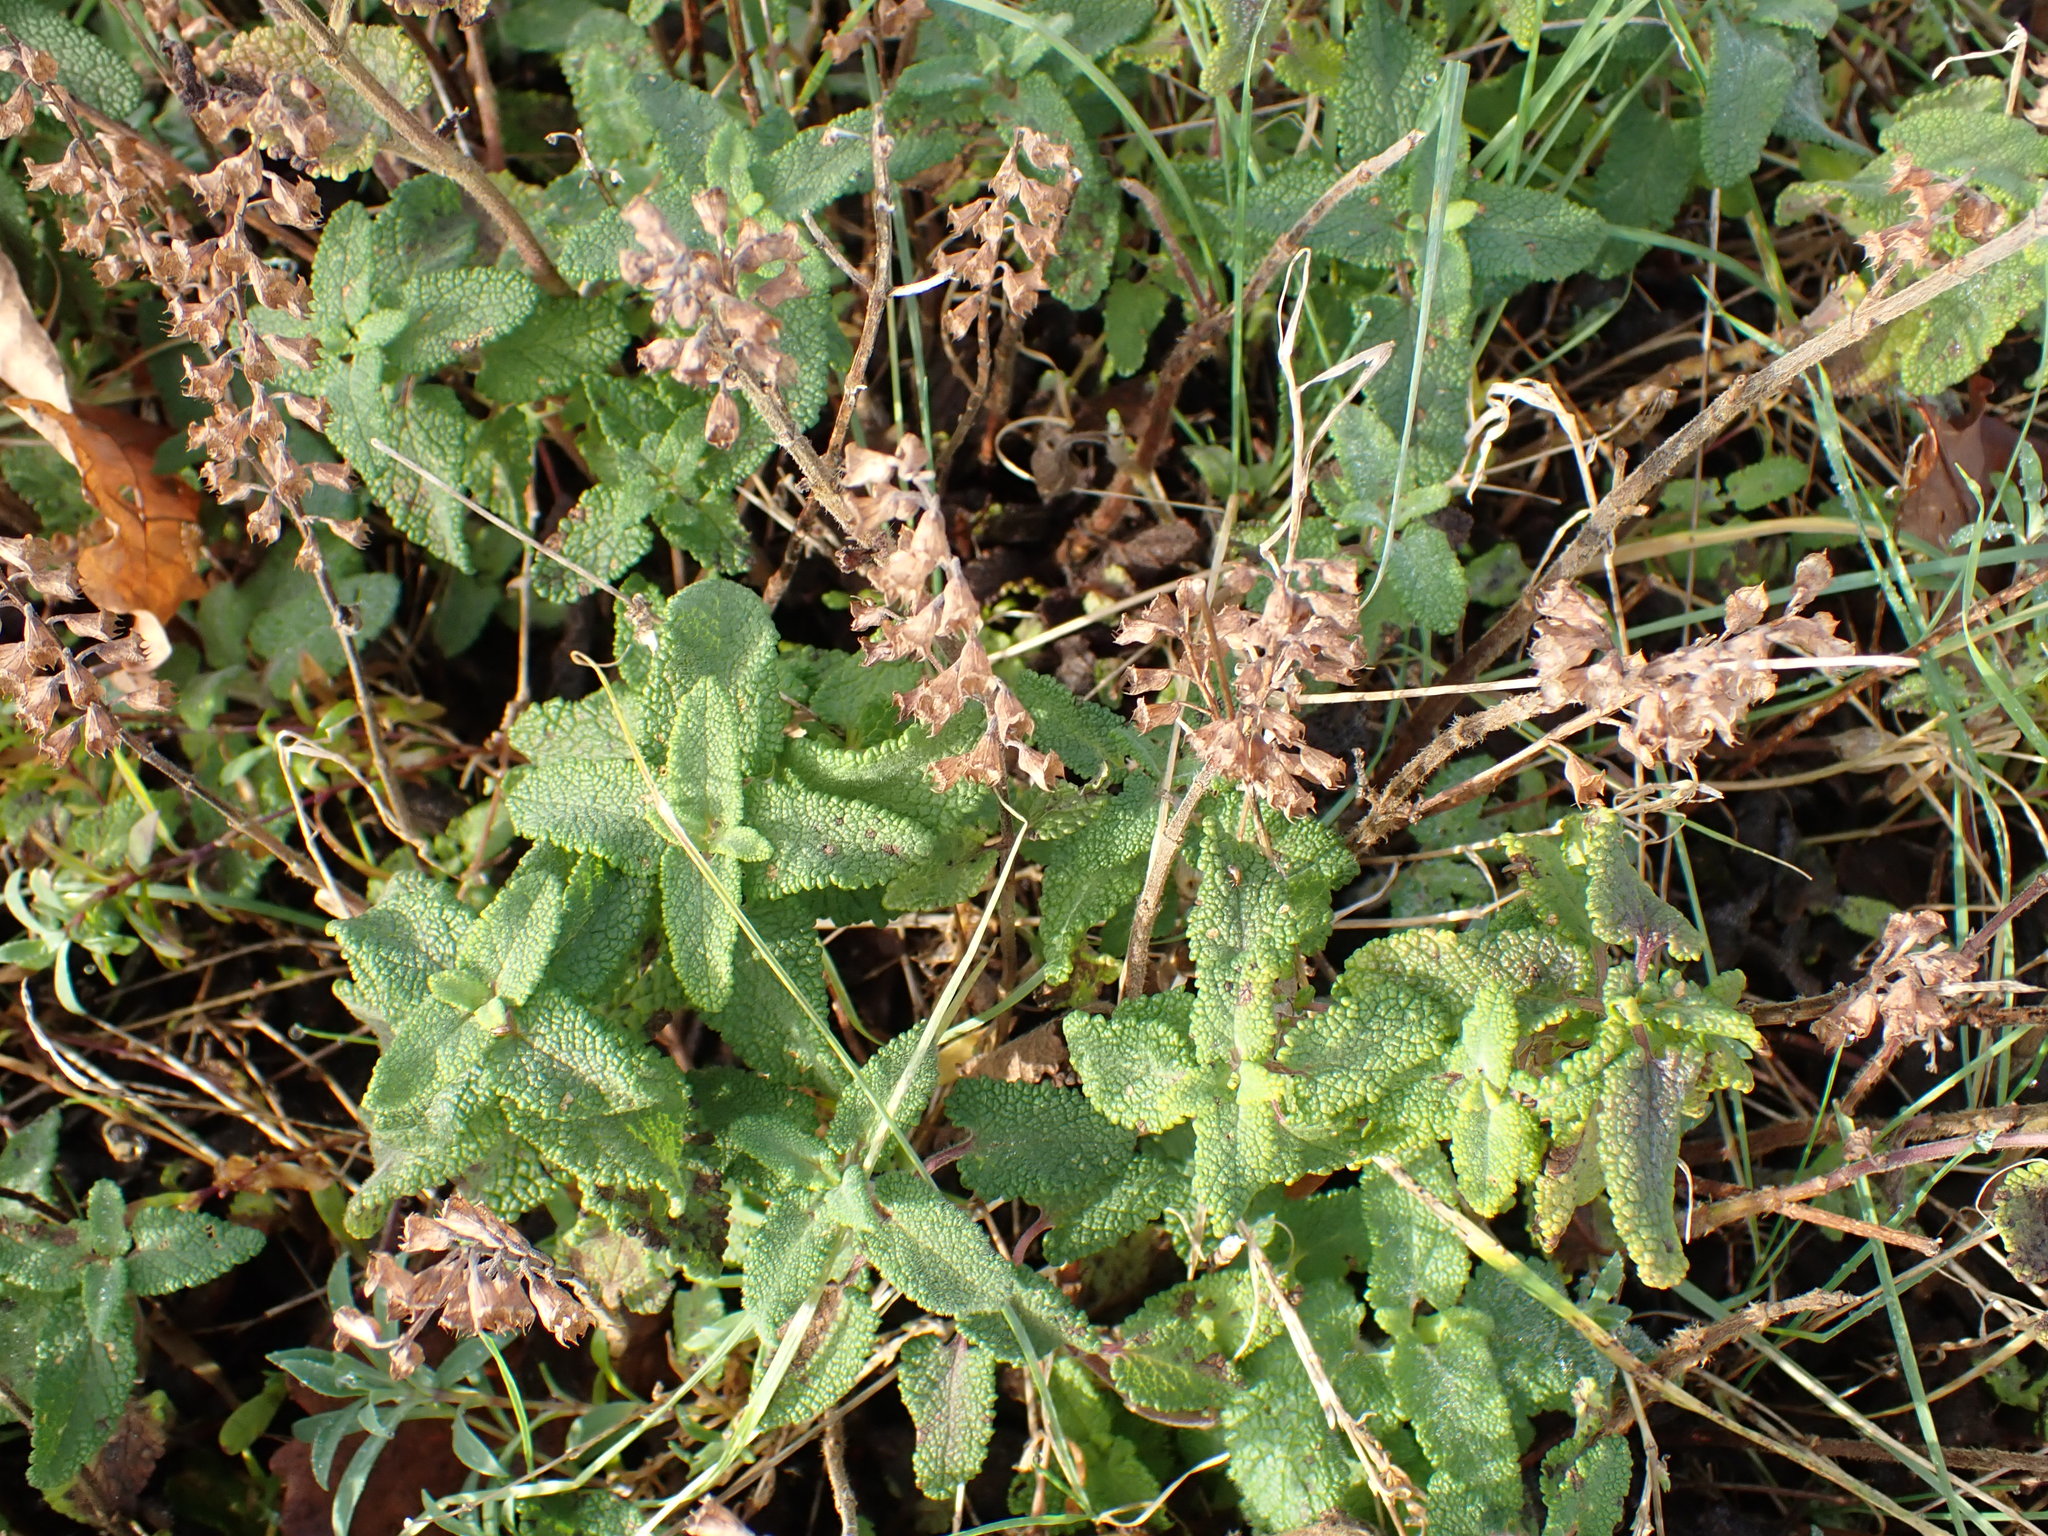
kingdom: Plantae
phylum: Tracheophyta
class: Magnoliopsida
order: Lamiales
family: Lamiaceae
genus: Teucrium
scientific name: Teucrium scorodonia
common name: Woodland germander
